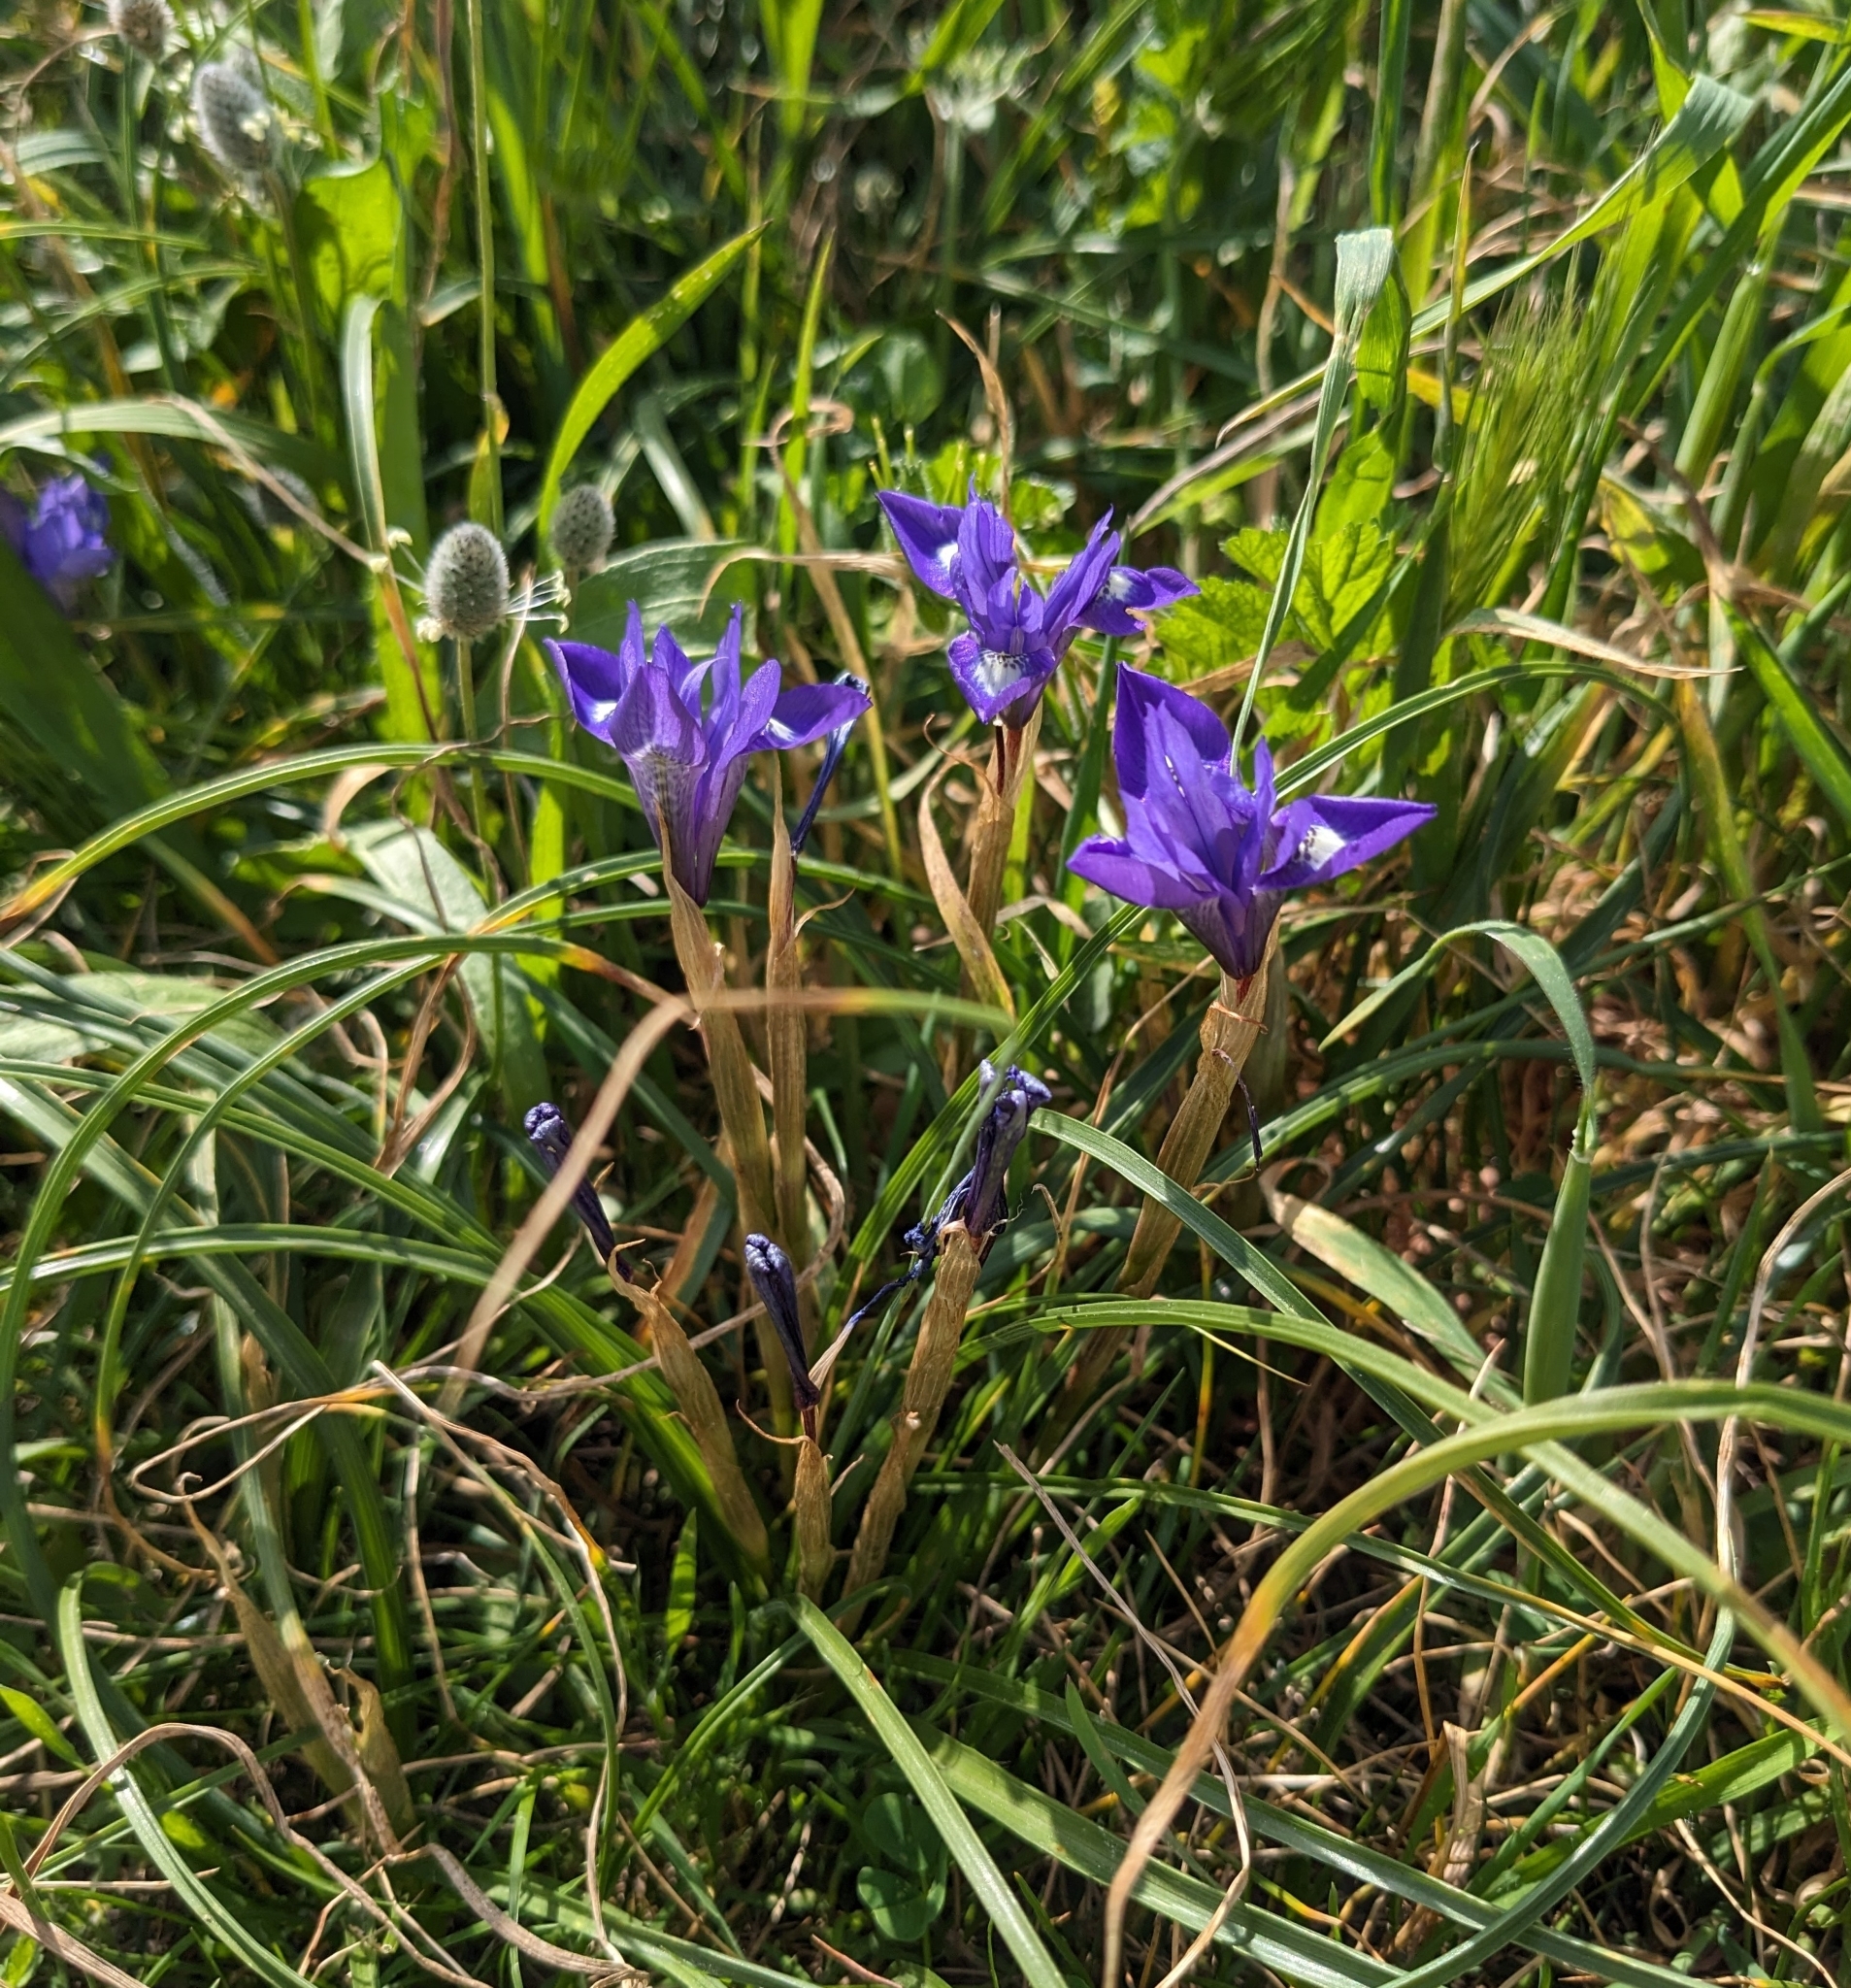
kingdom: Plantae
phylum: Tracheophyta
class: Liliopsida
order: Asparagales
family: Iridaceae
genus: Moraea
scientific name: Moraea sisyrinchium
